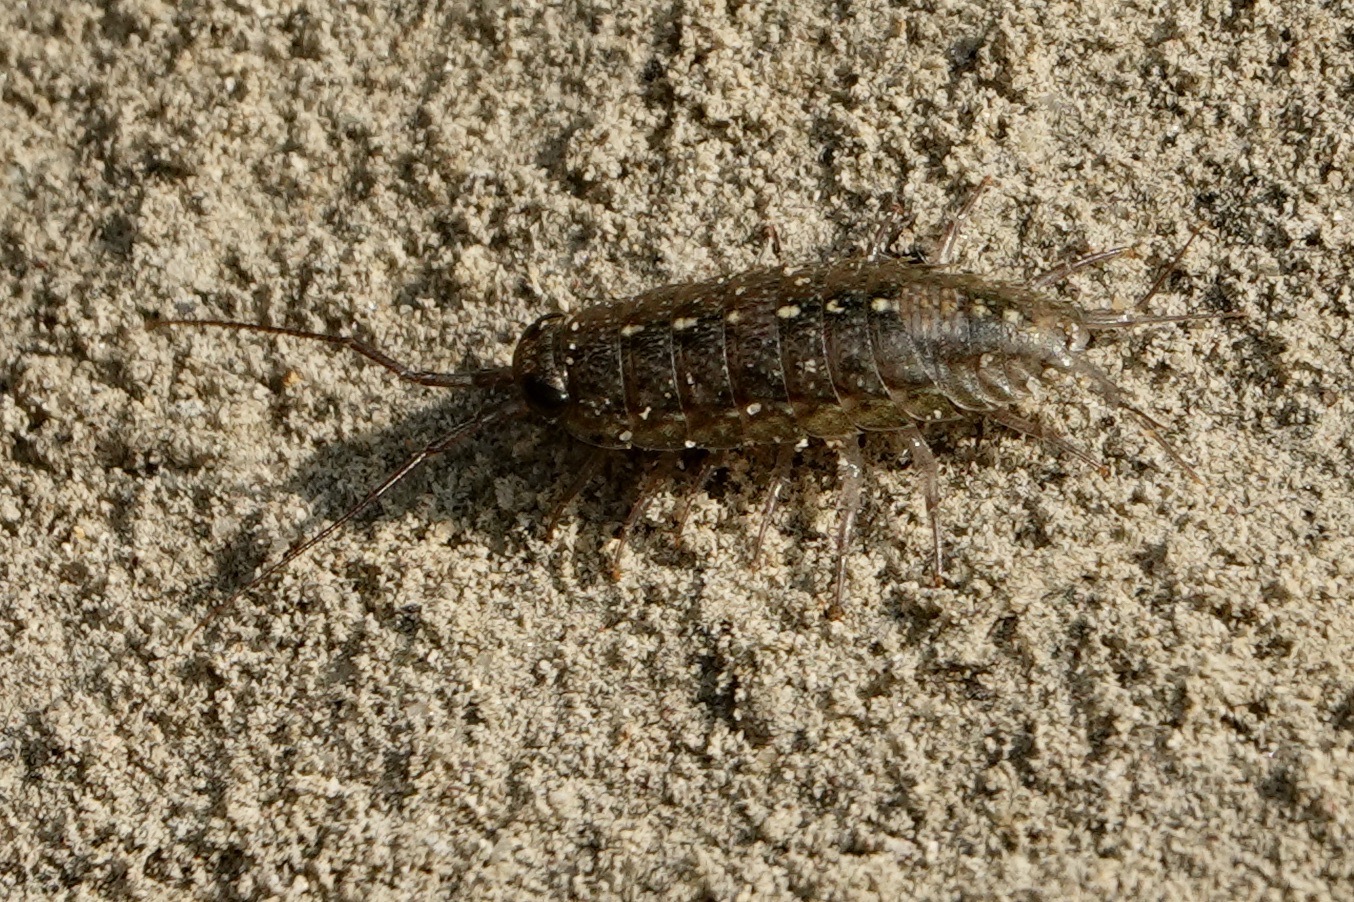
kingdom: Animalia
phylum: Arthropoda
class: Malacostraca
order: Isopoda
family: Ligiidae
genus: Ligia
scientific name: Ligia occidentalis
